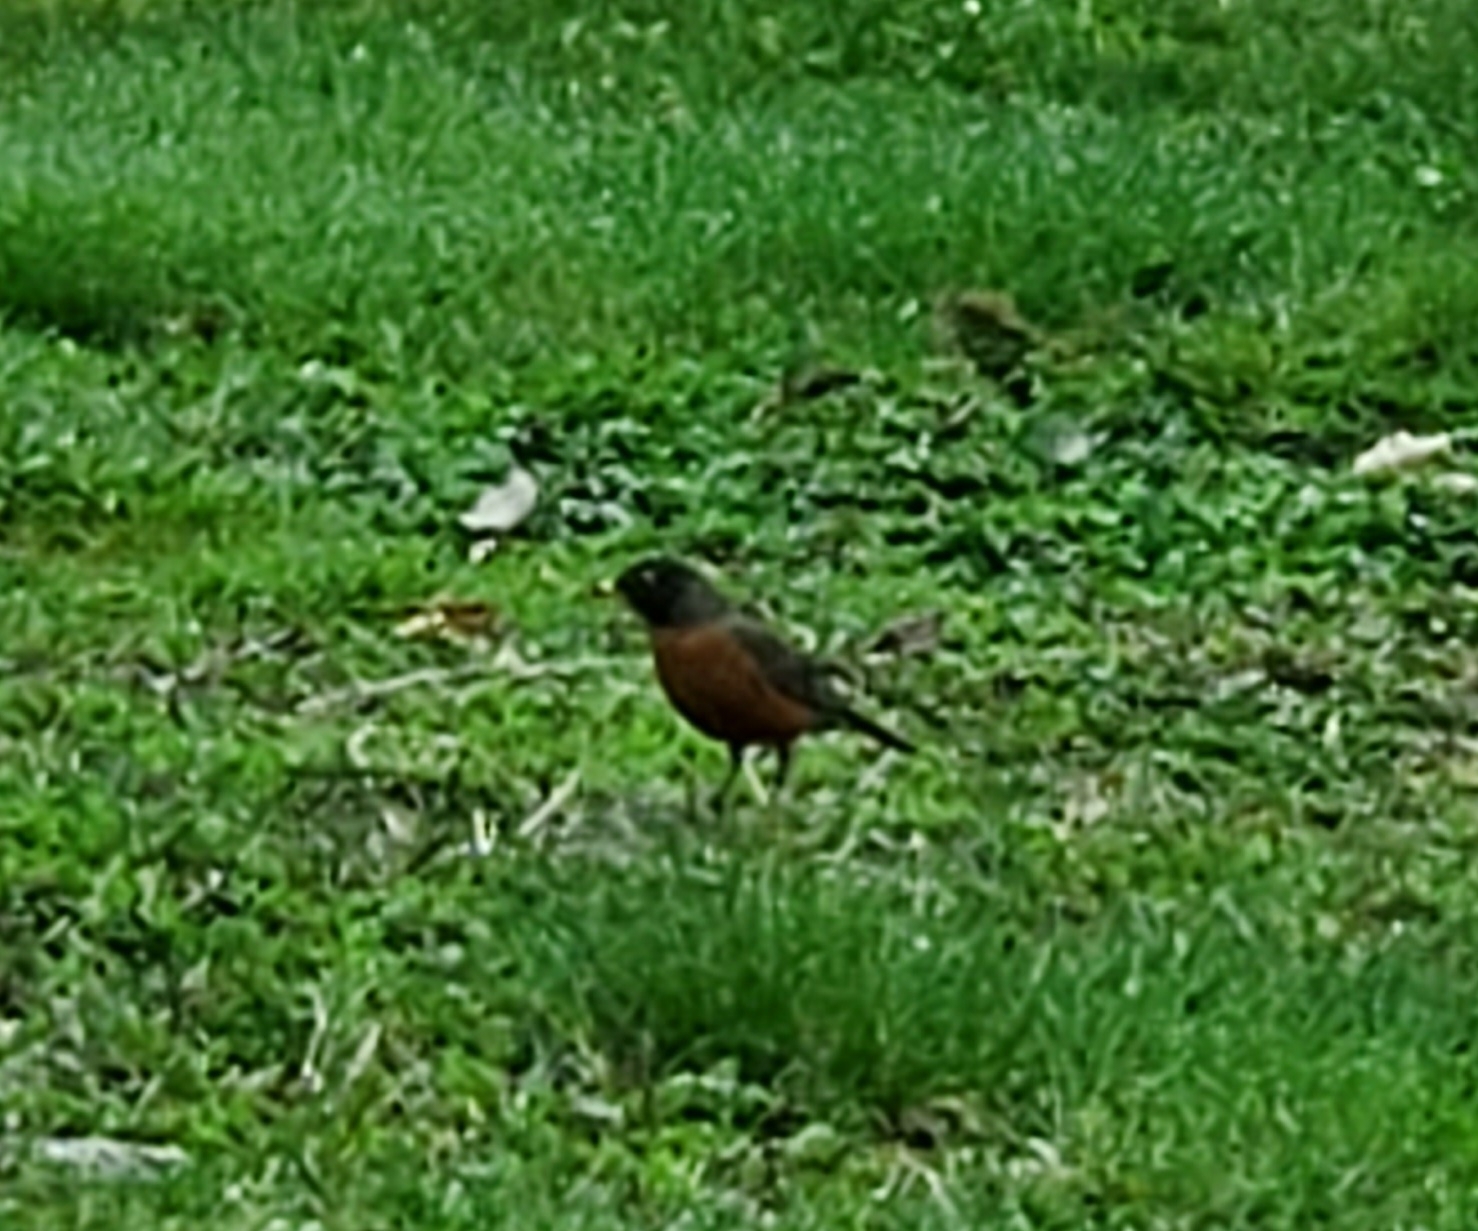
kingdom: Animalia
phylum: Chordata
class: Aves
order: Passeriformes
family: Turdidae
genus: Turdus
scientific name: Turdus migratorius
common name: American robin
